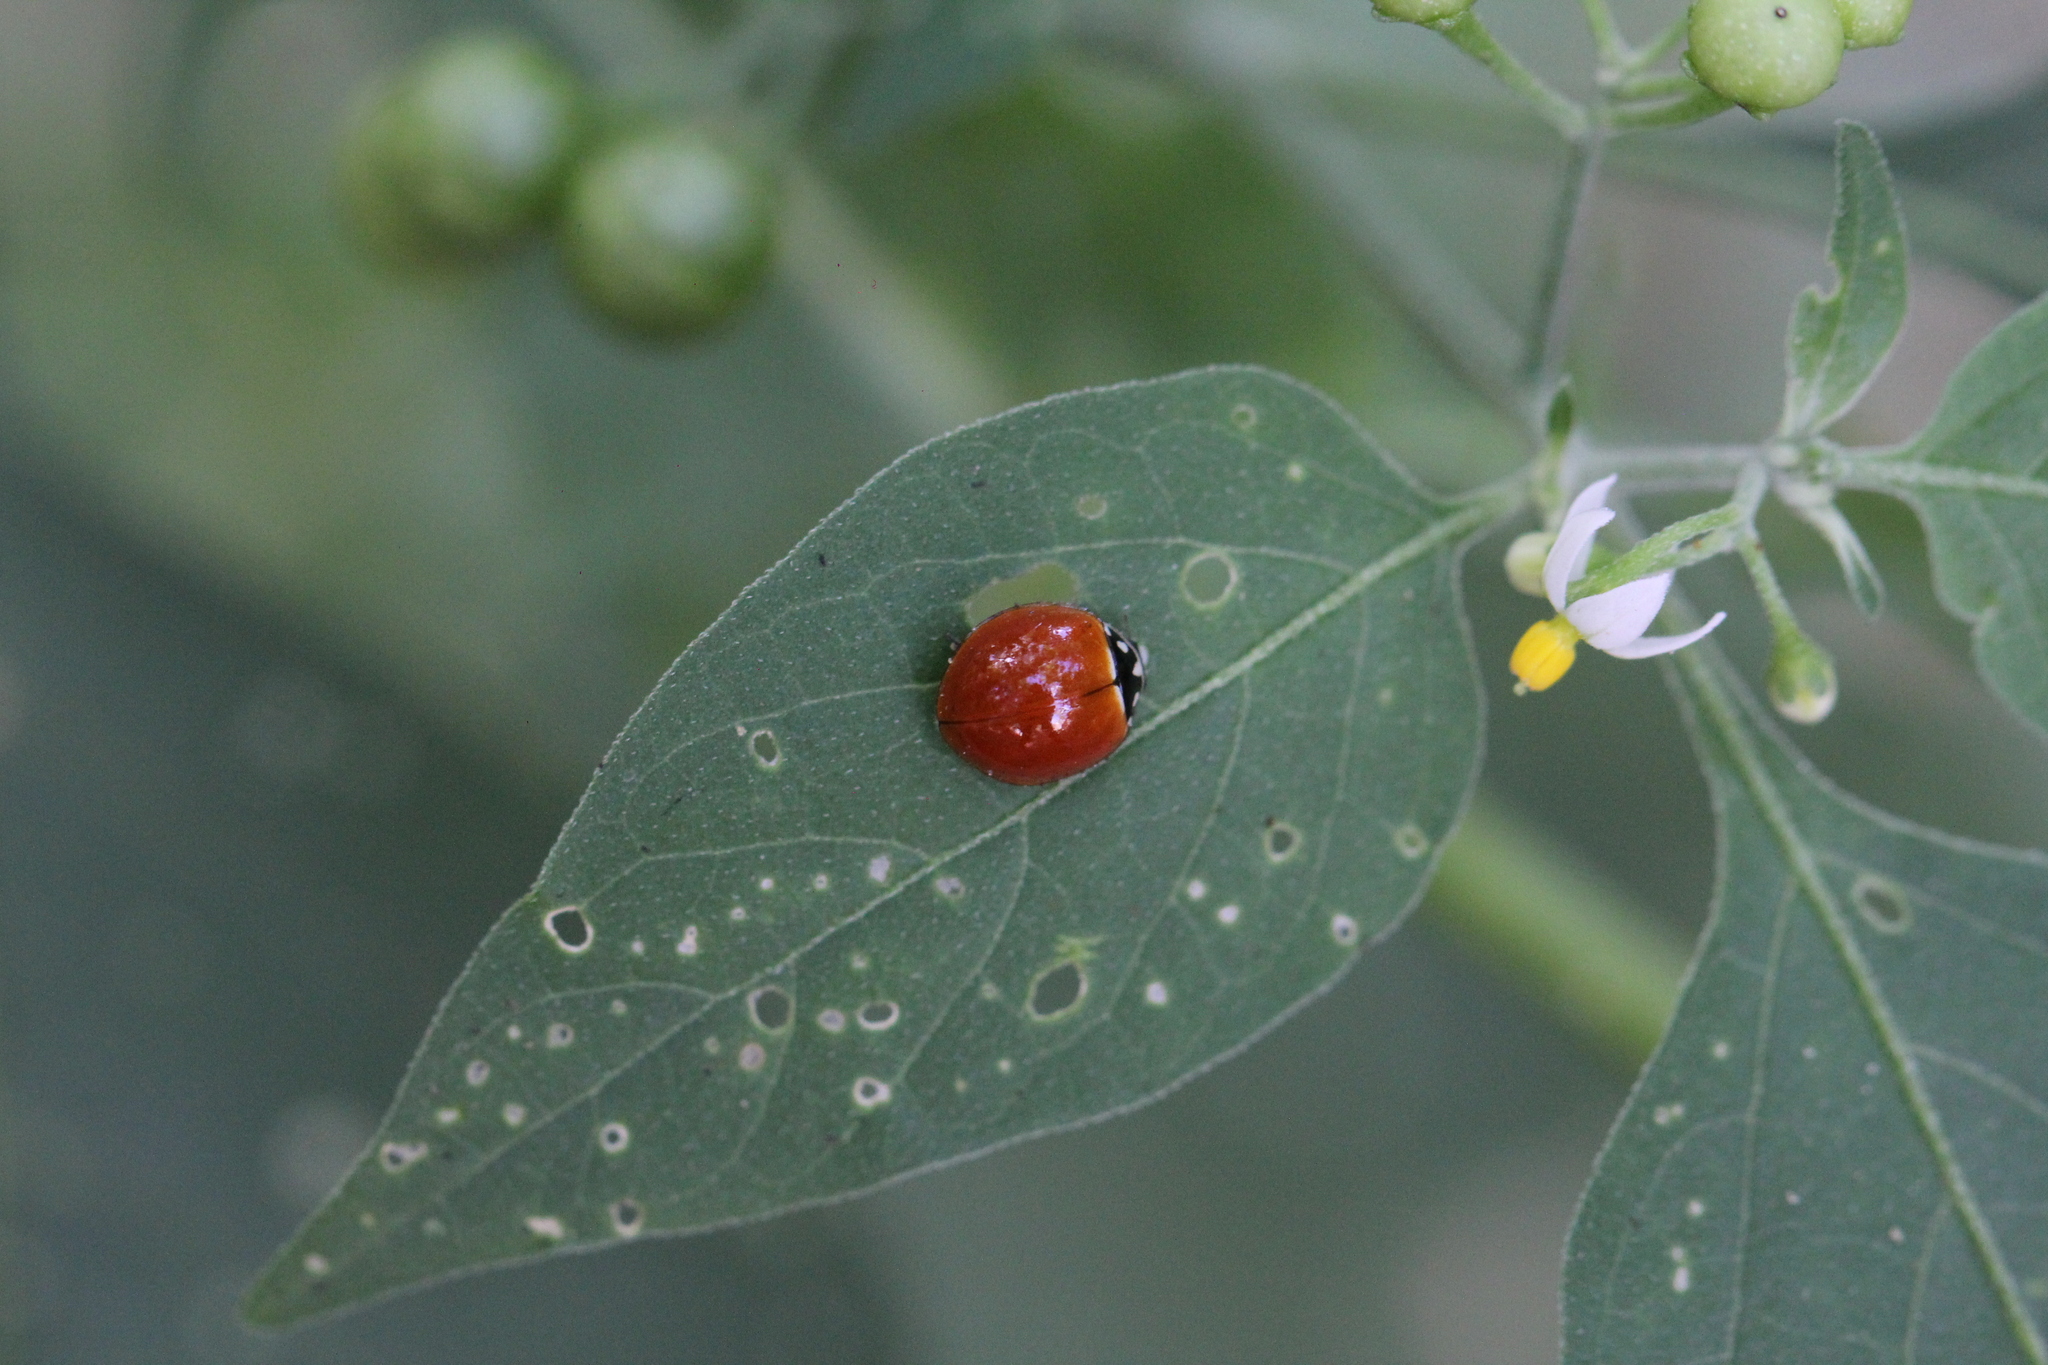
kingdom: Animalia
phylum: Arthropoda
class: Insecta
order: Coleoptera
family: Coccinellidae
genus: Cycloneda
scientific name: Cycloneda sanguinea
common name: Ladybird beetle
